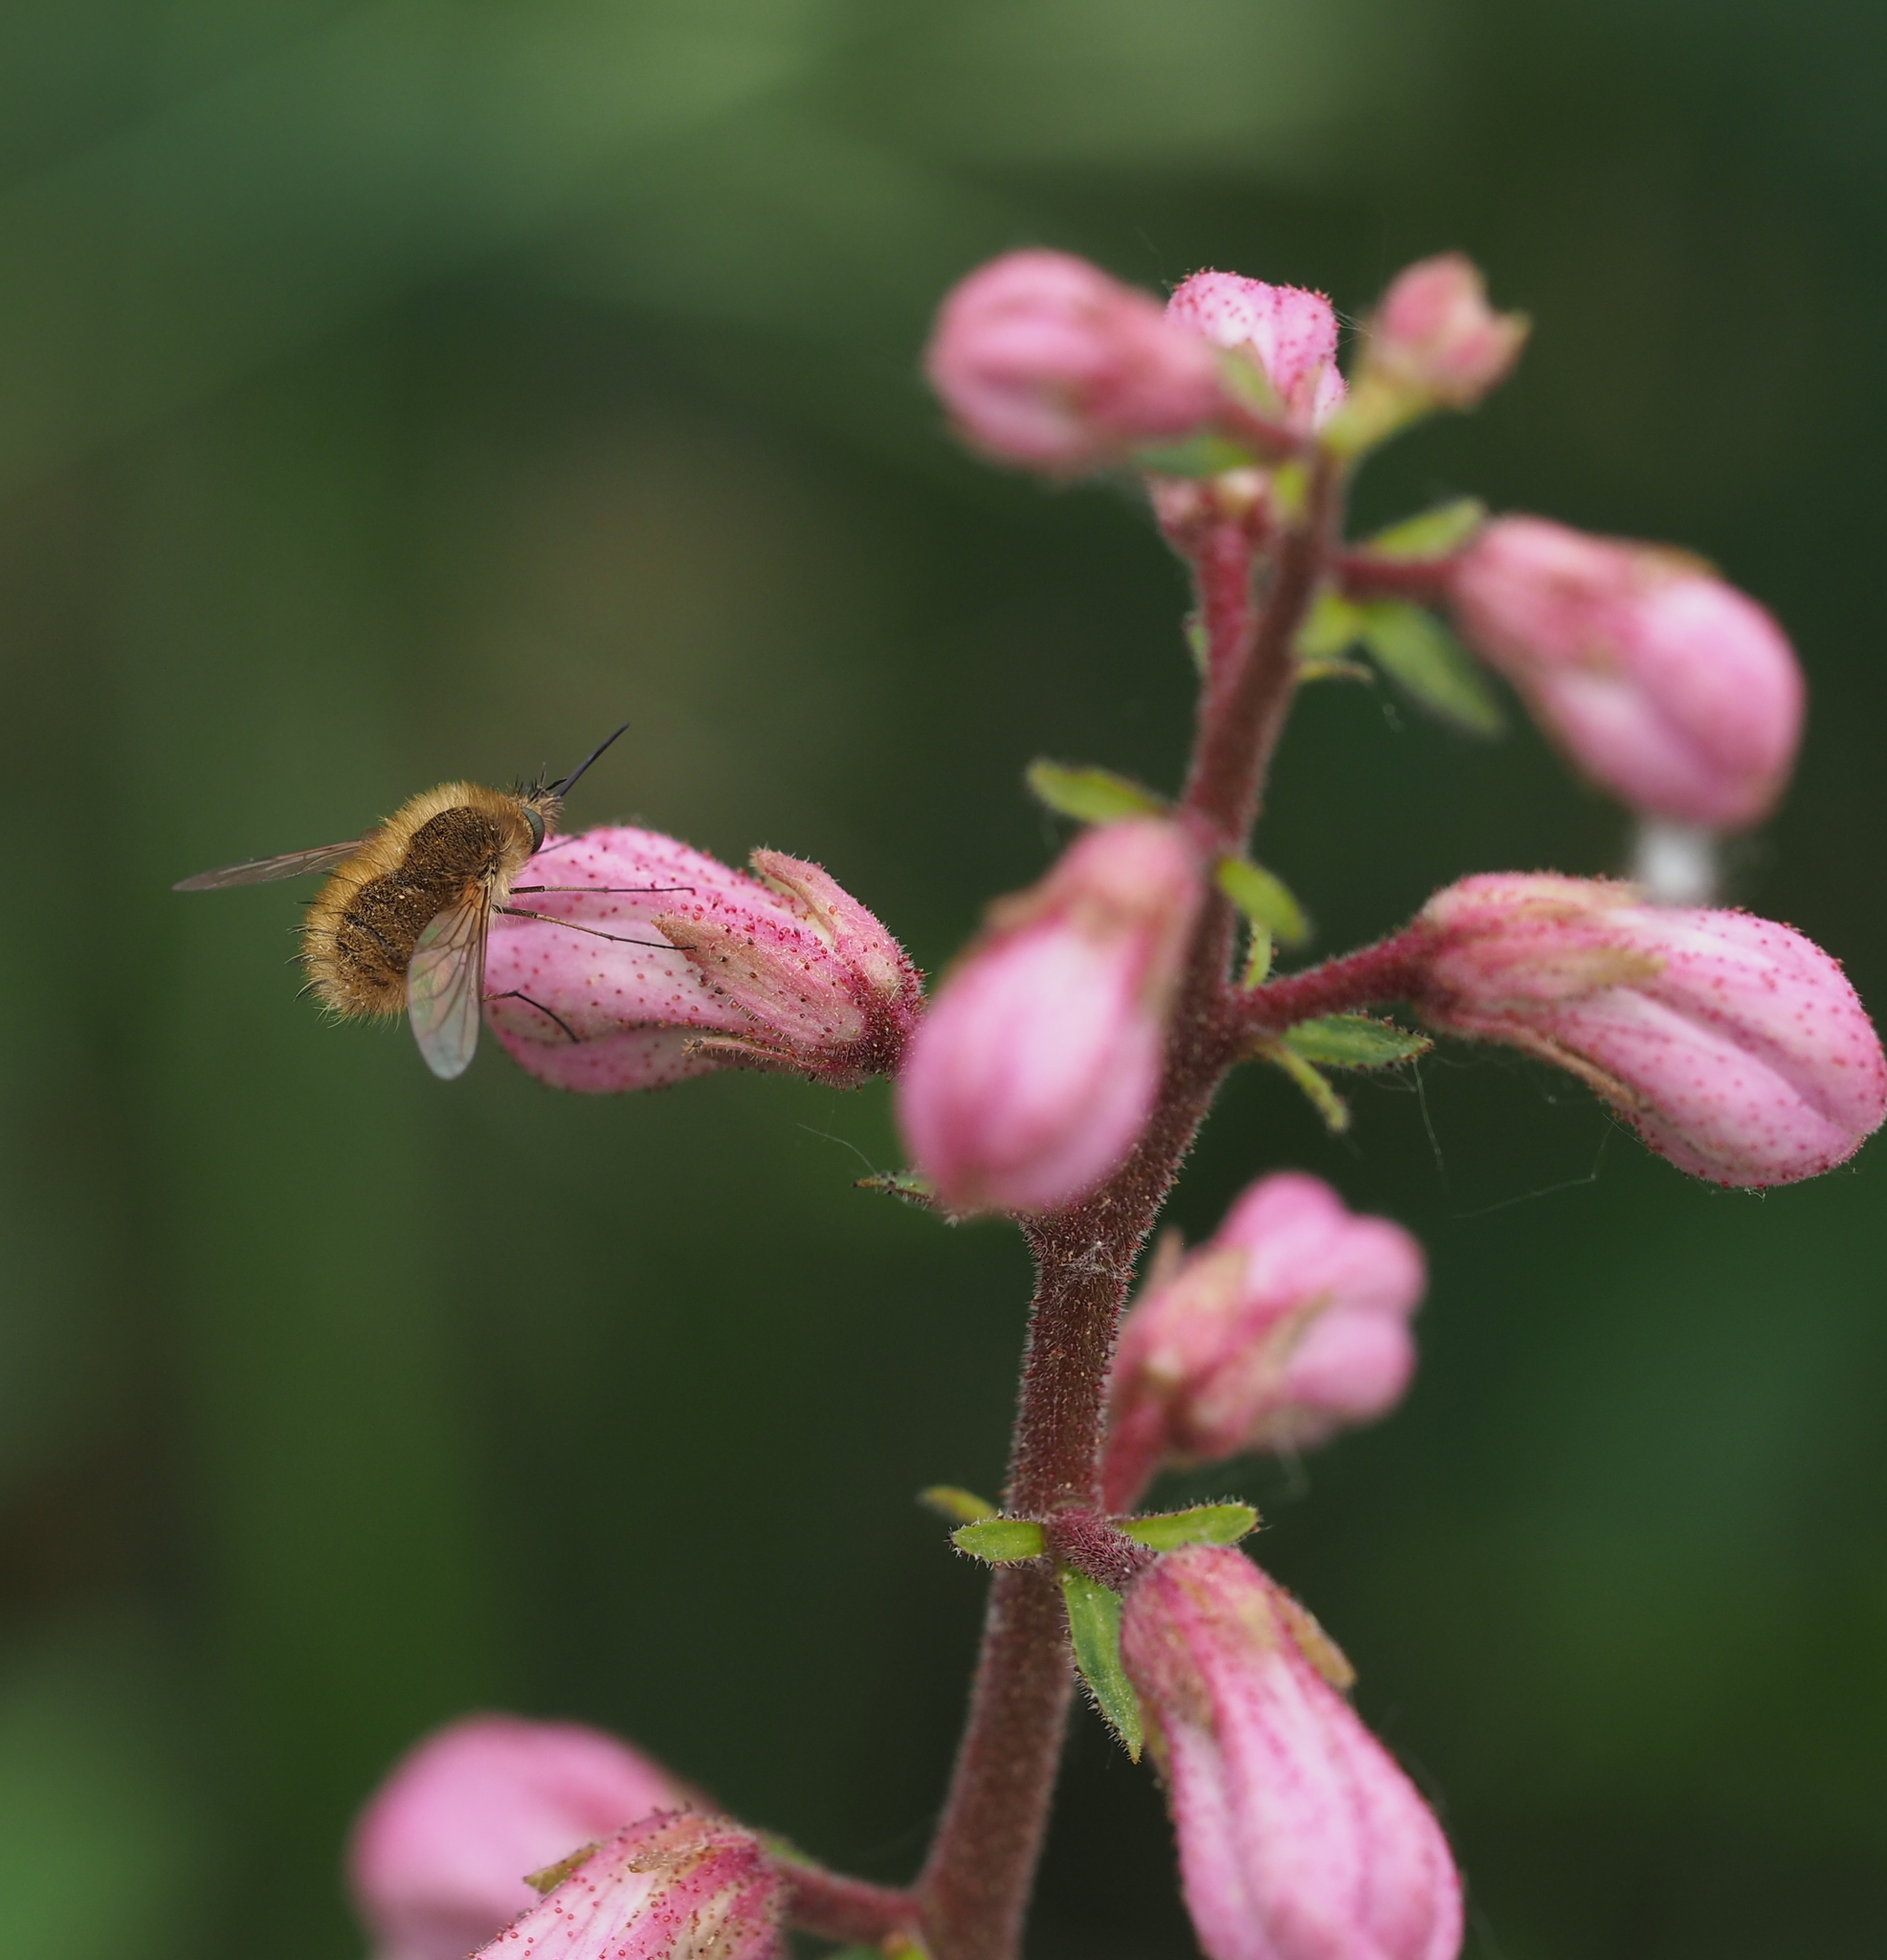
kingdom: Animalia
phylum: Arthropoda
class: Insecta
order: Diptera
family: Bombyliidae
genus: Bombylius
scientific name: Bombylius canescens
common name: Western bee-fly
